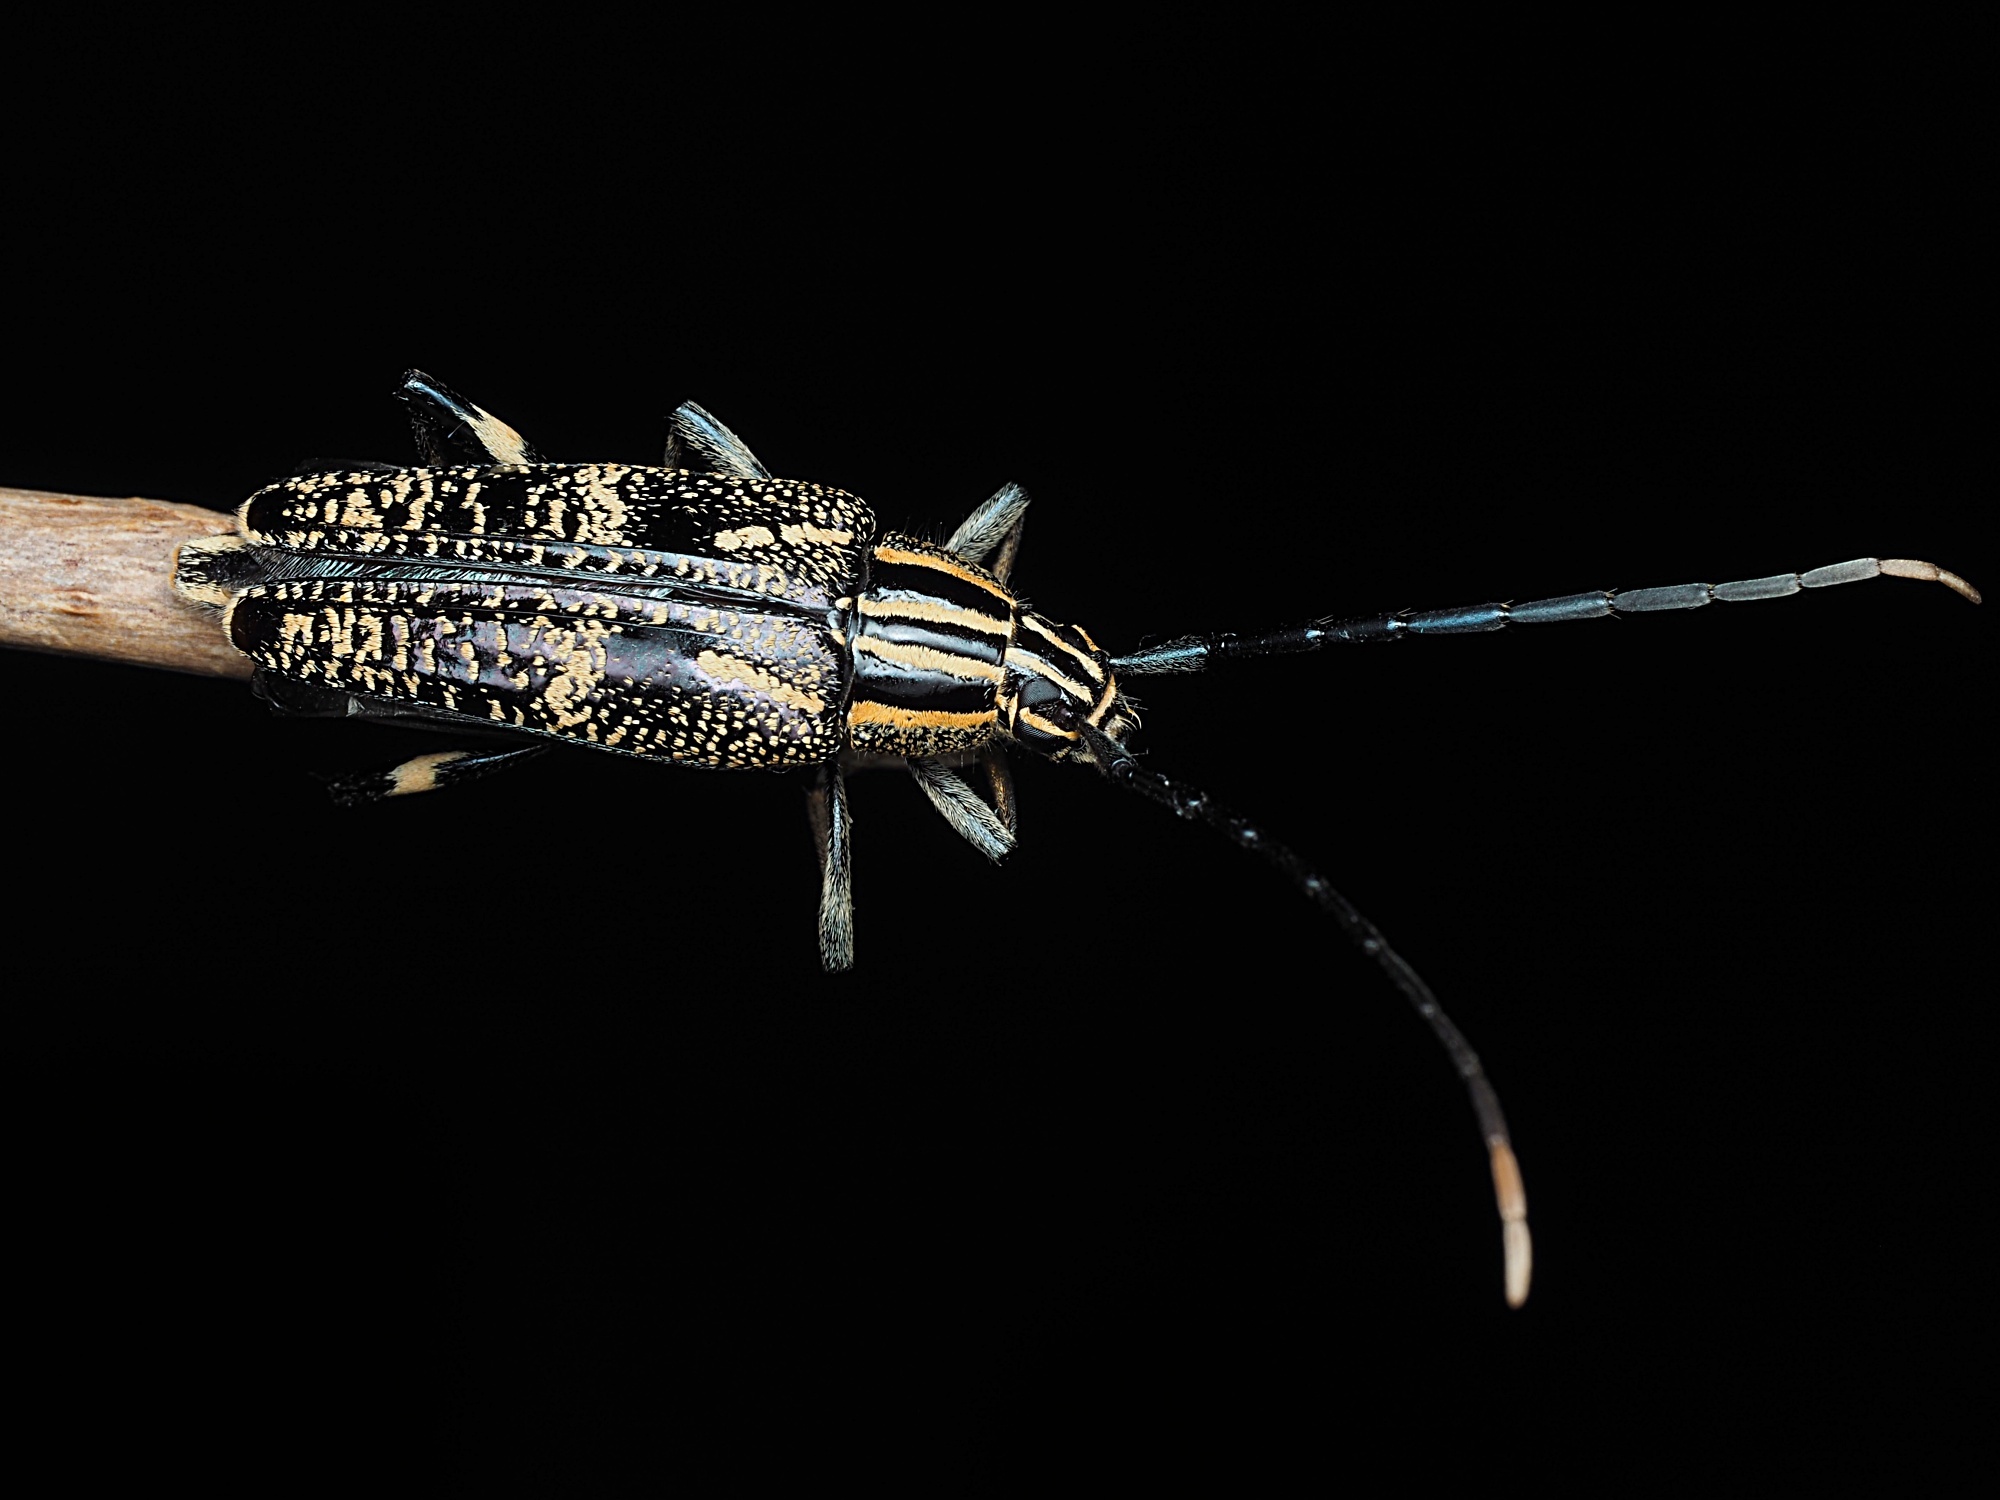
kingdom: Animalia
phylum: Arthropoda
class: Insecta
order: Coleoptera
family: Cerambycidae
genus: Coptomma
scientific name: Coptomma variegatum
